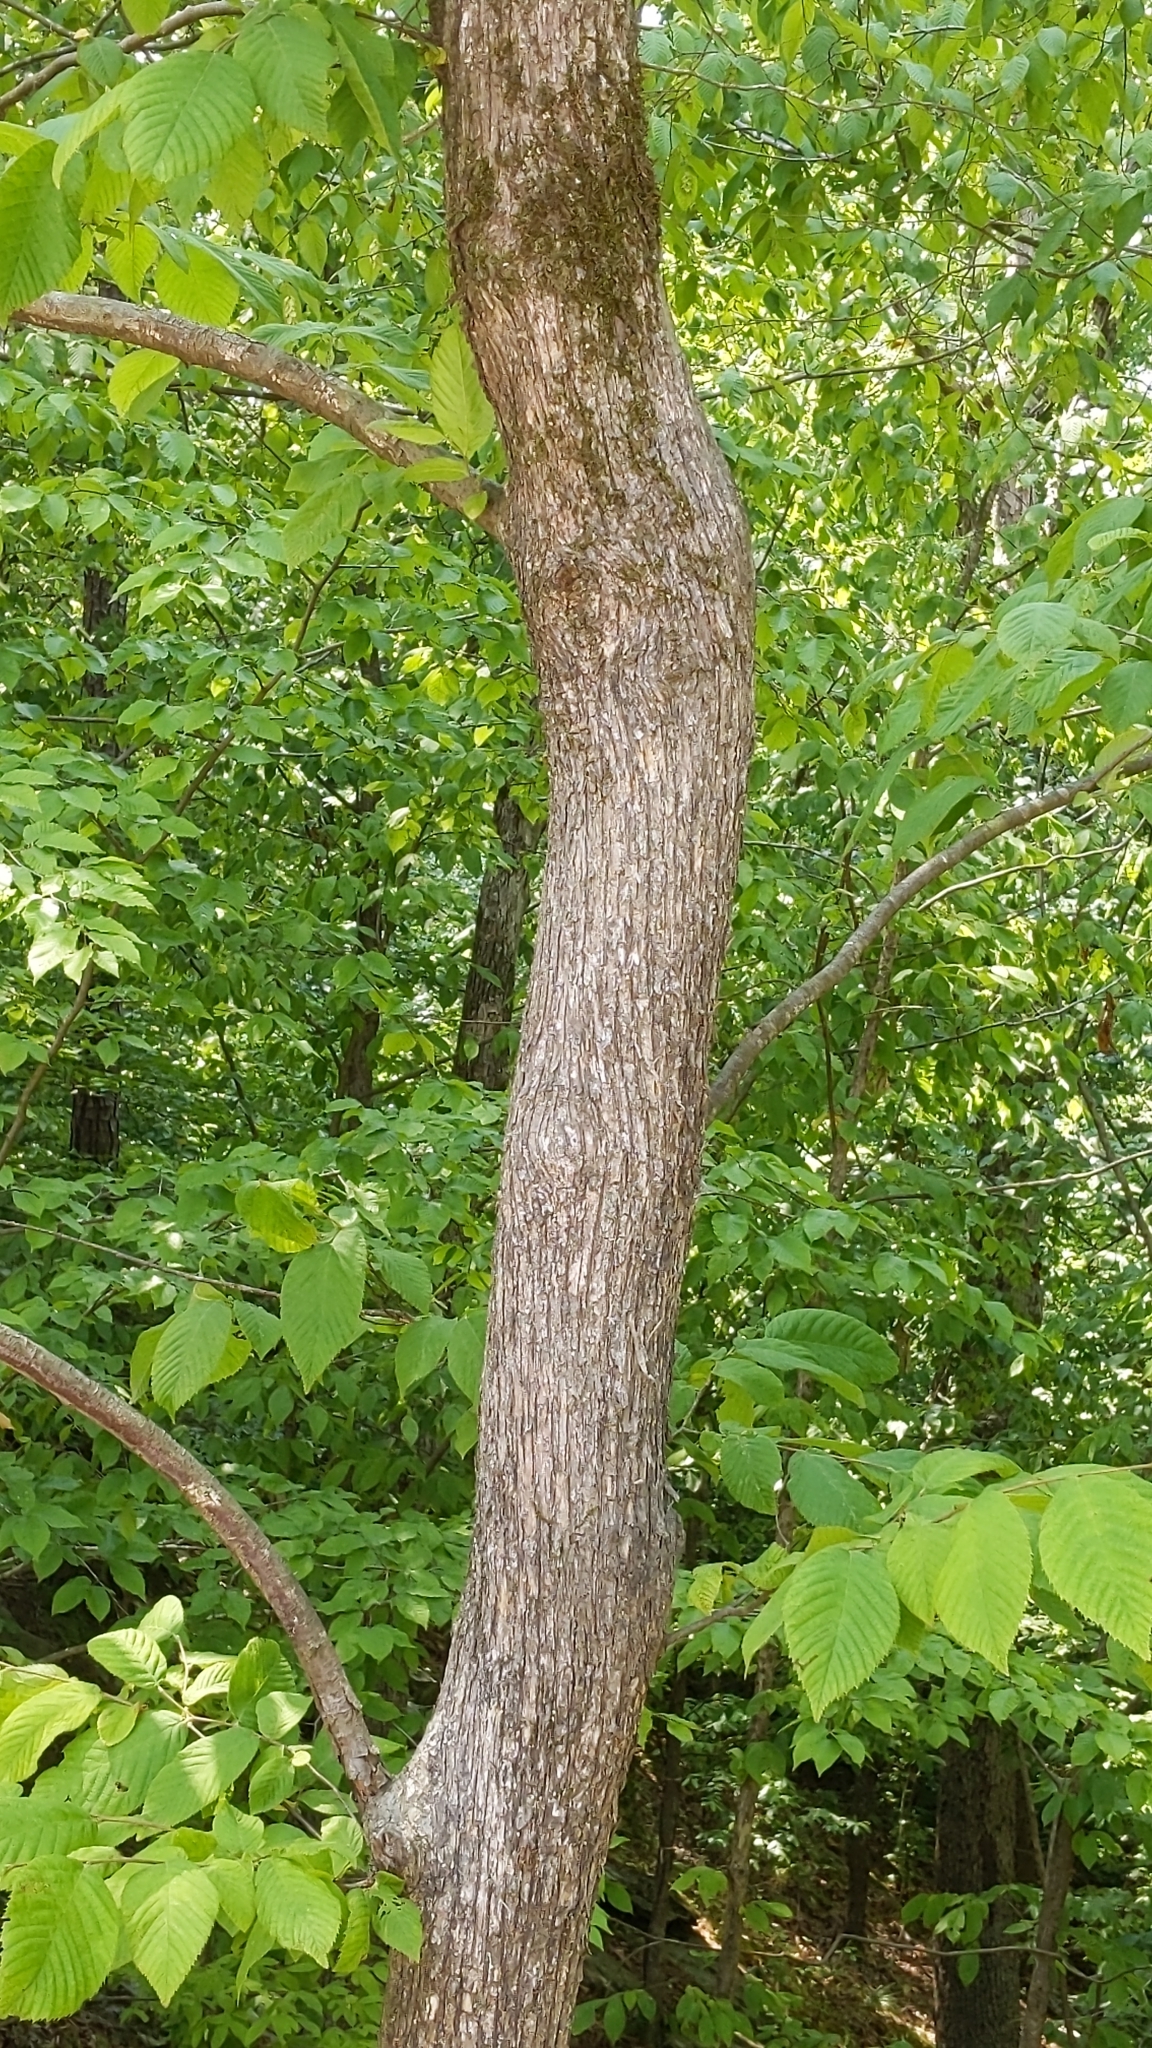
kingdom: Plantae
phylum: Tracheophyta
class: Magnoliopsida
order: Fagales
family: Betulaceae
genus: Ostrya
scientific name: Ostrya virginiana
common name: Ironwood
